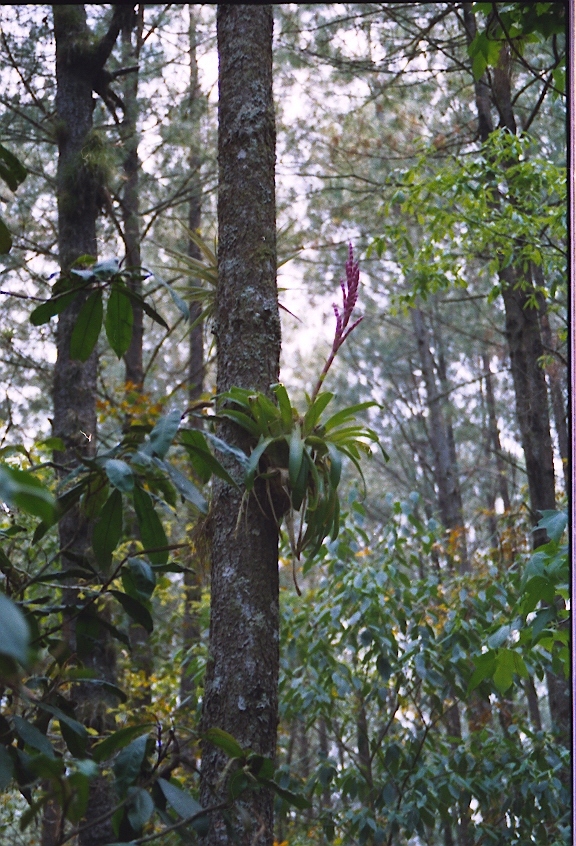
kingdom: Plantae
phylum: Tracheophyta
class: Liliopsida
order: Poales
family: Bromeliaceae
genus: Tillandsia
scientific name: Tillandsia lucida
